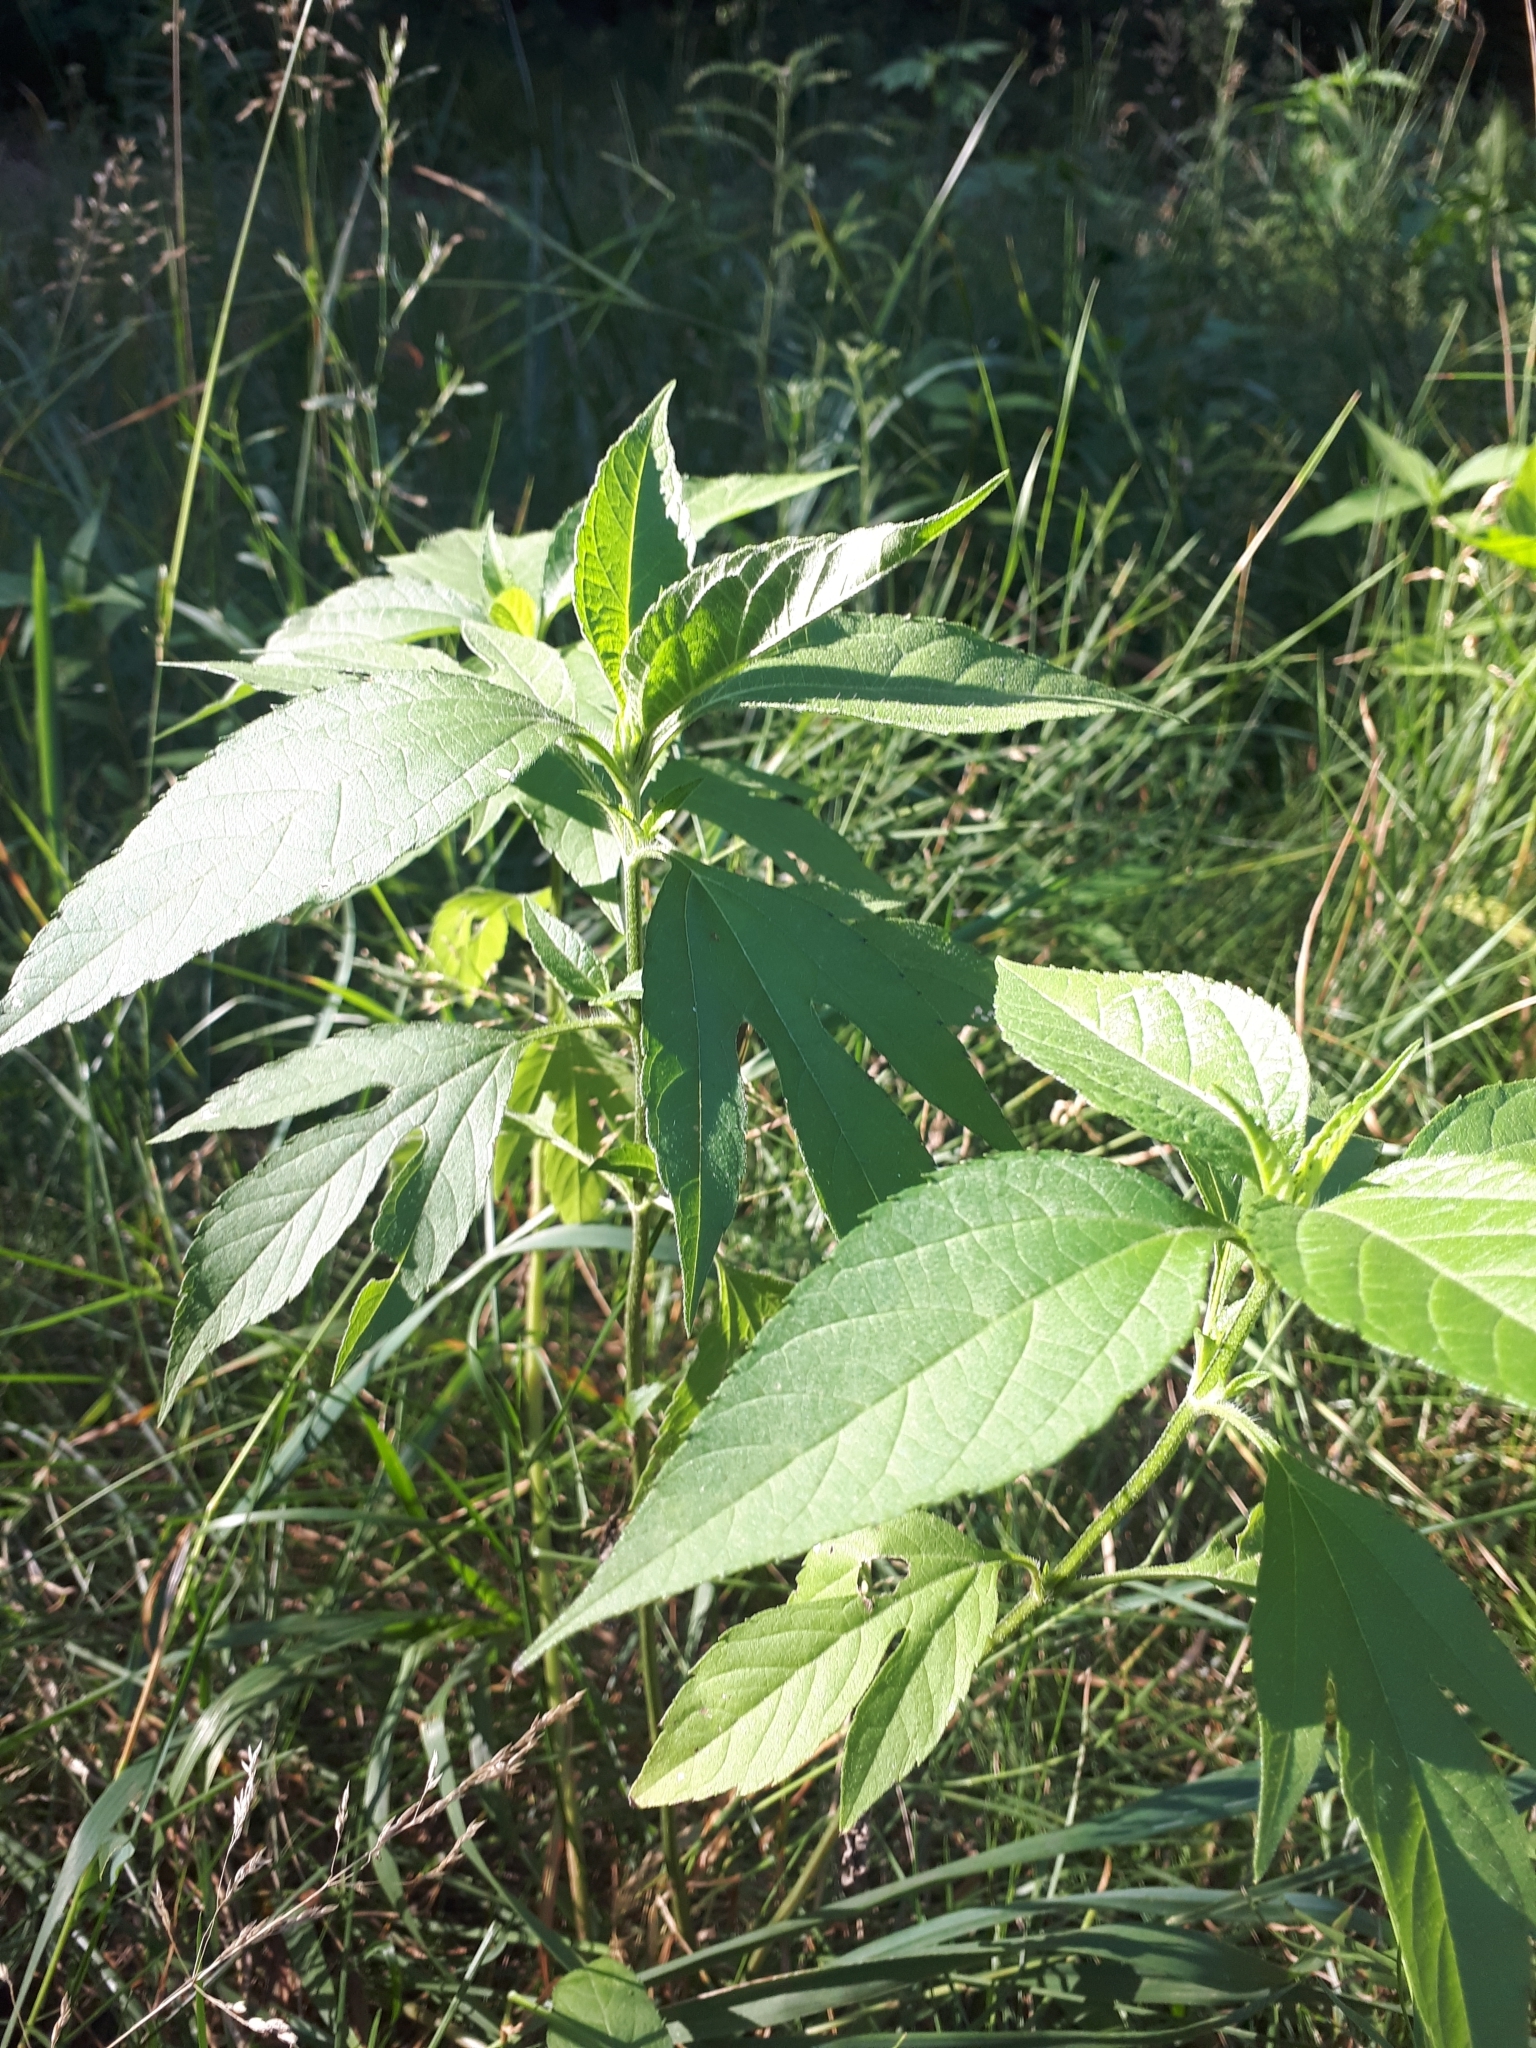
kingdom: Plantae
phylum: Tracheophyta
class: Magnoliopsida
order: Asterales
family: Asteraceae
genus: Ambrosia
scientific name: Ambrosia trifida
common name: Giant ragweed
